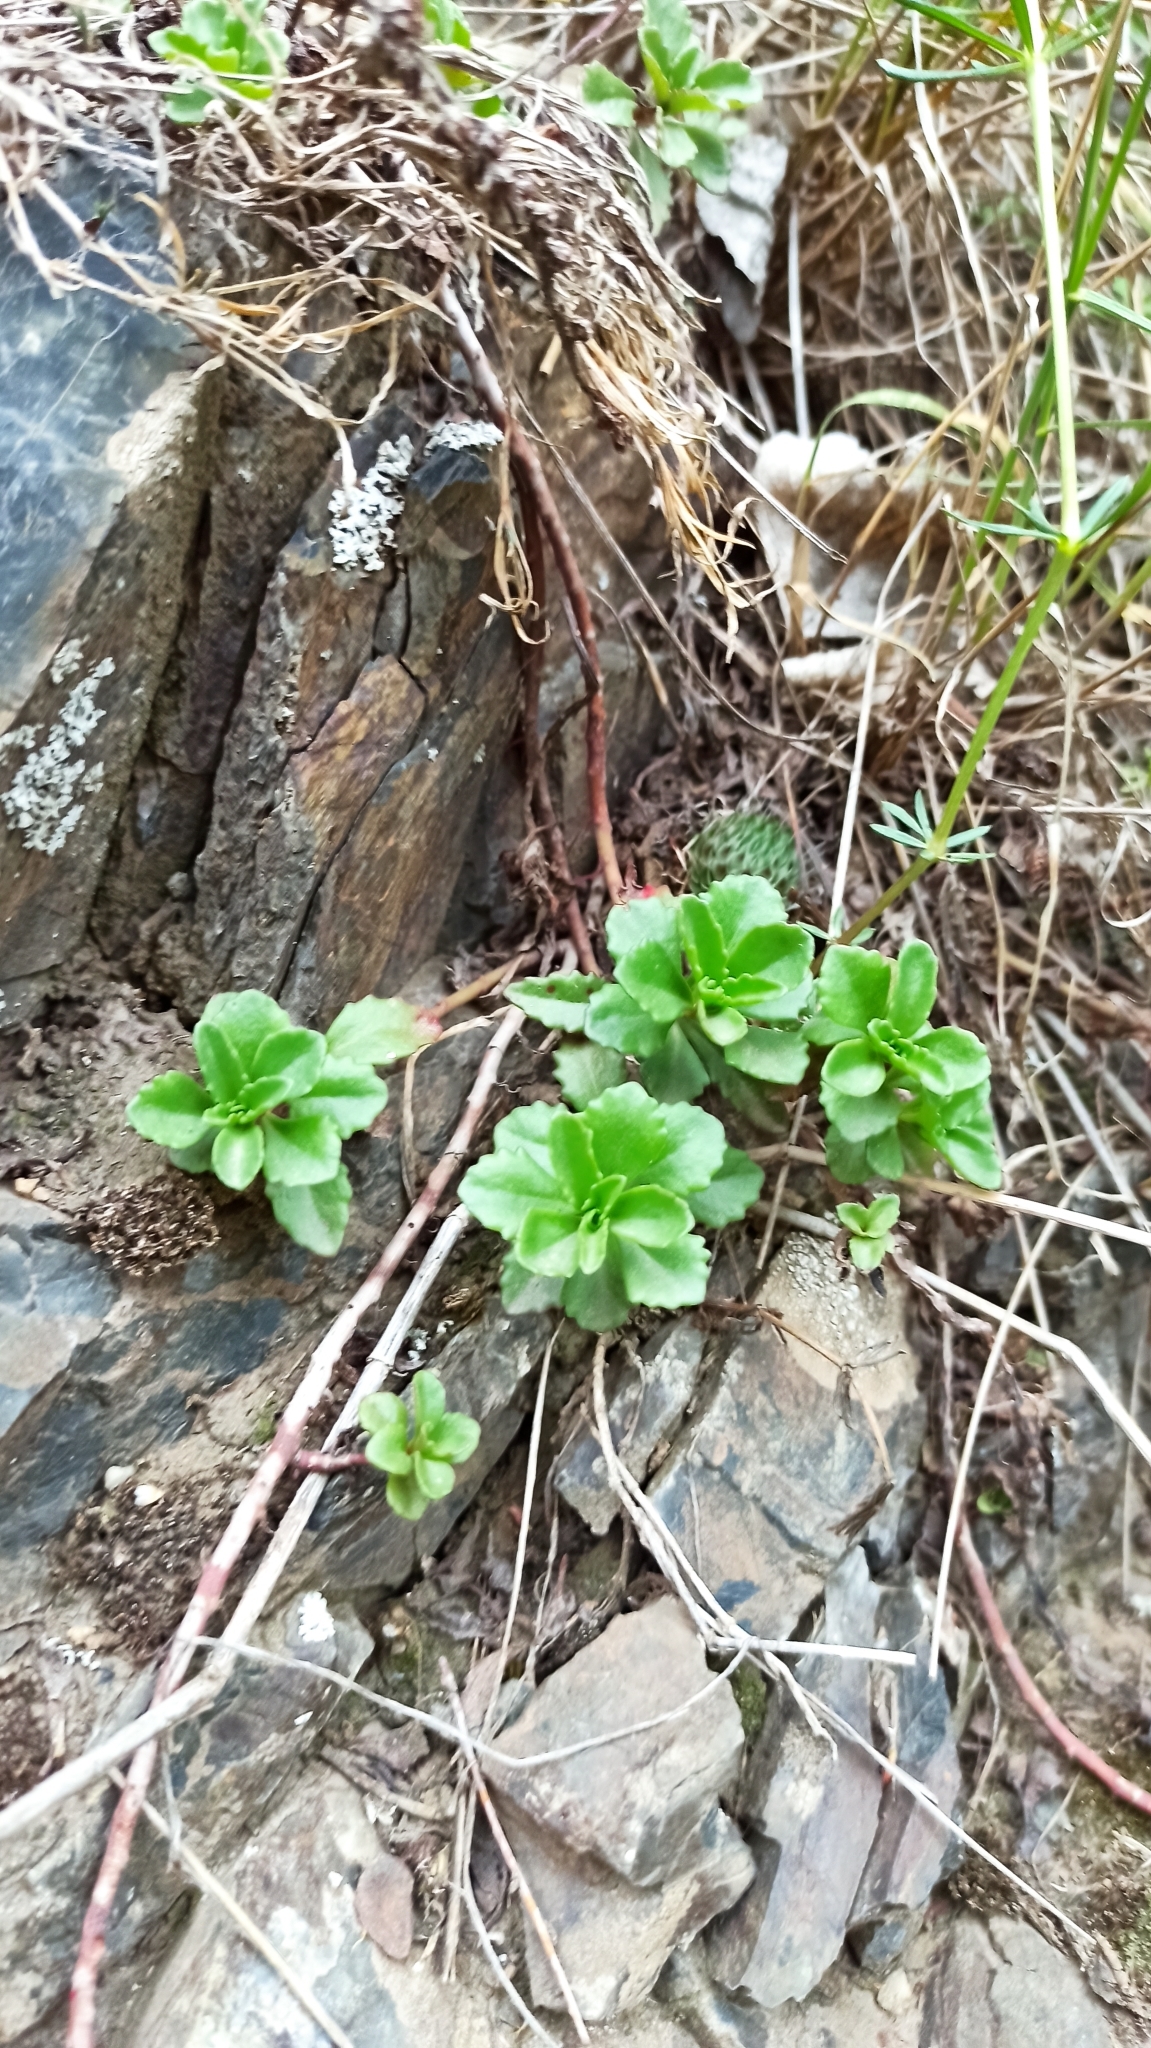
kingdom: Plantae
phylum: Tracheophyta
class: Magnoliopsida
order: Saxifragales
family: Crassulaceae
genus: Phedimus
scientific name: Phedimus hybridus
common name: Hybrid stonecrop
